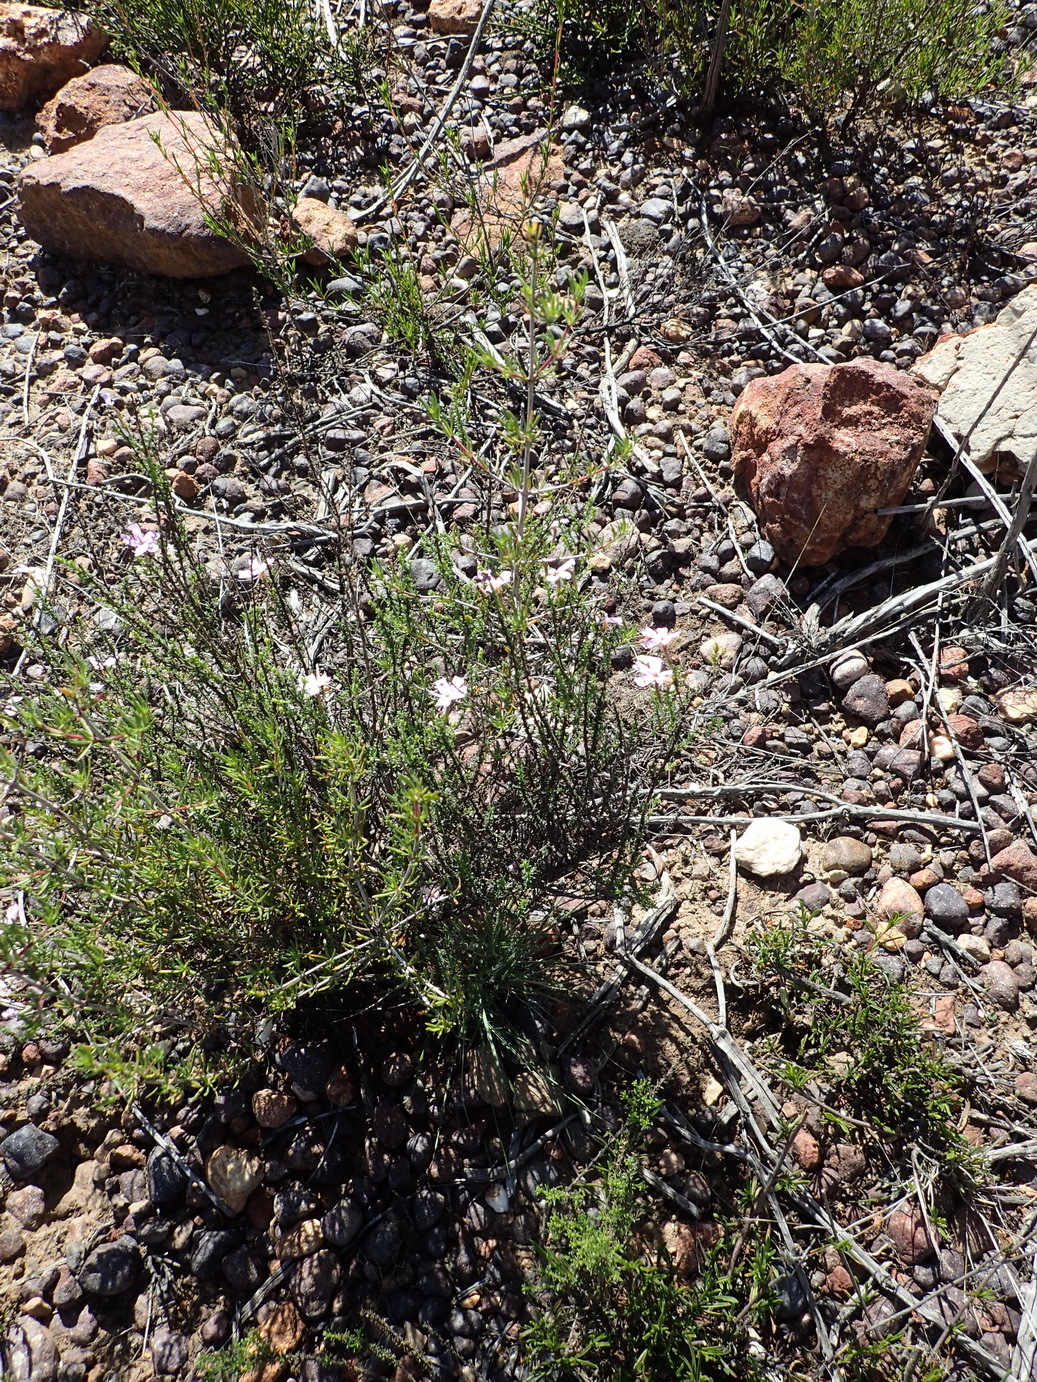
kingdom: Plantae
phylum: Tracheophyta
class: Magnoliopsida
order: Lamiales
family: Scrophulariaceae
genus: Jamesbrittenia
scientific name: Jamesbrittenia aspalathoides
